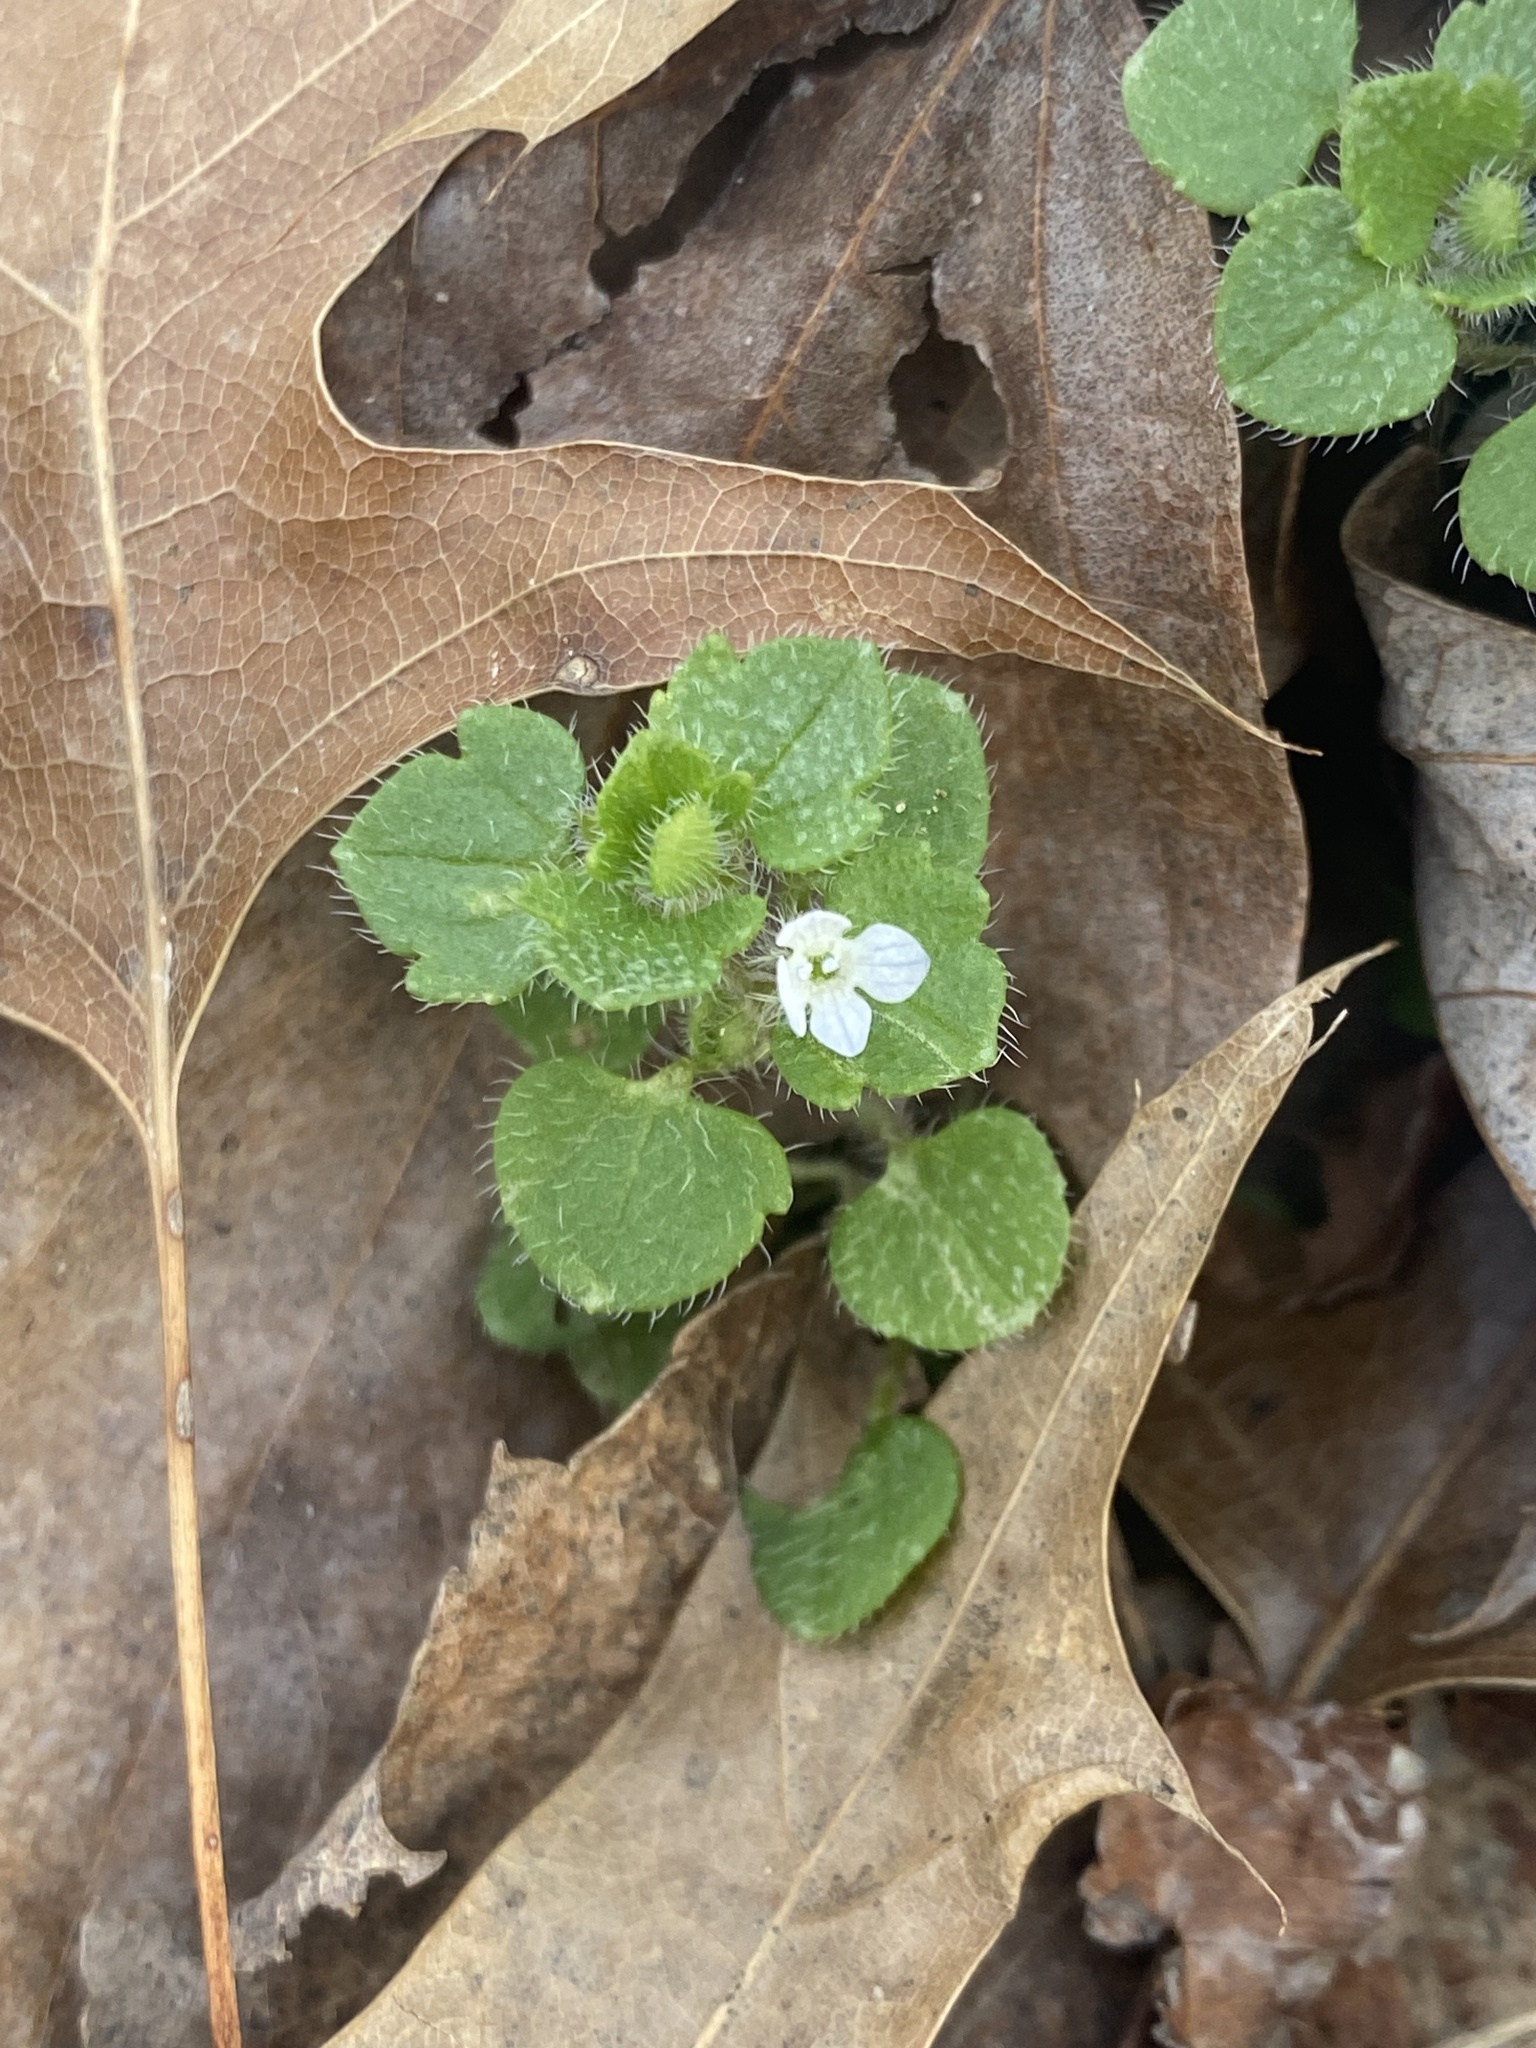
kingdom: Plantae
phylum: Tracheophyta
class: Magnoliopsida
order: Lamiales
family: Plantaginaceae
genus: Veronica
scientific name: Veronica hederifolia
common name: Ivy-leaved speedwell
